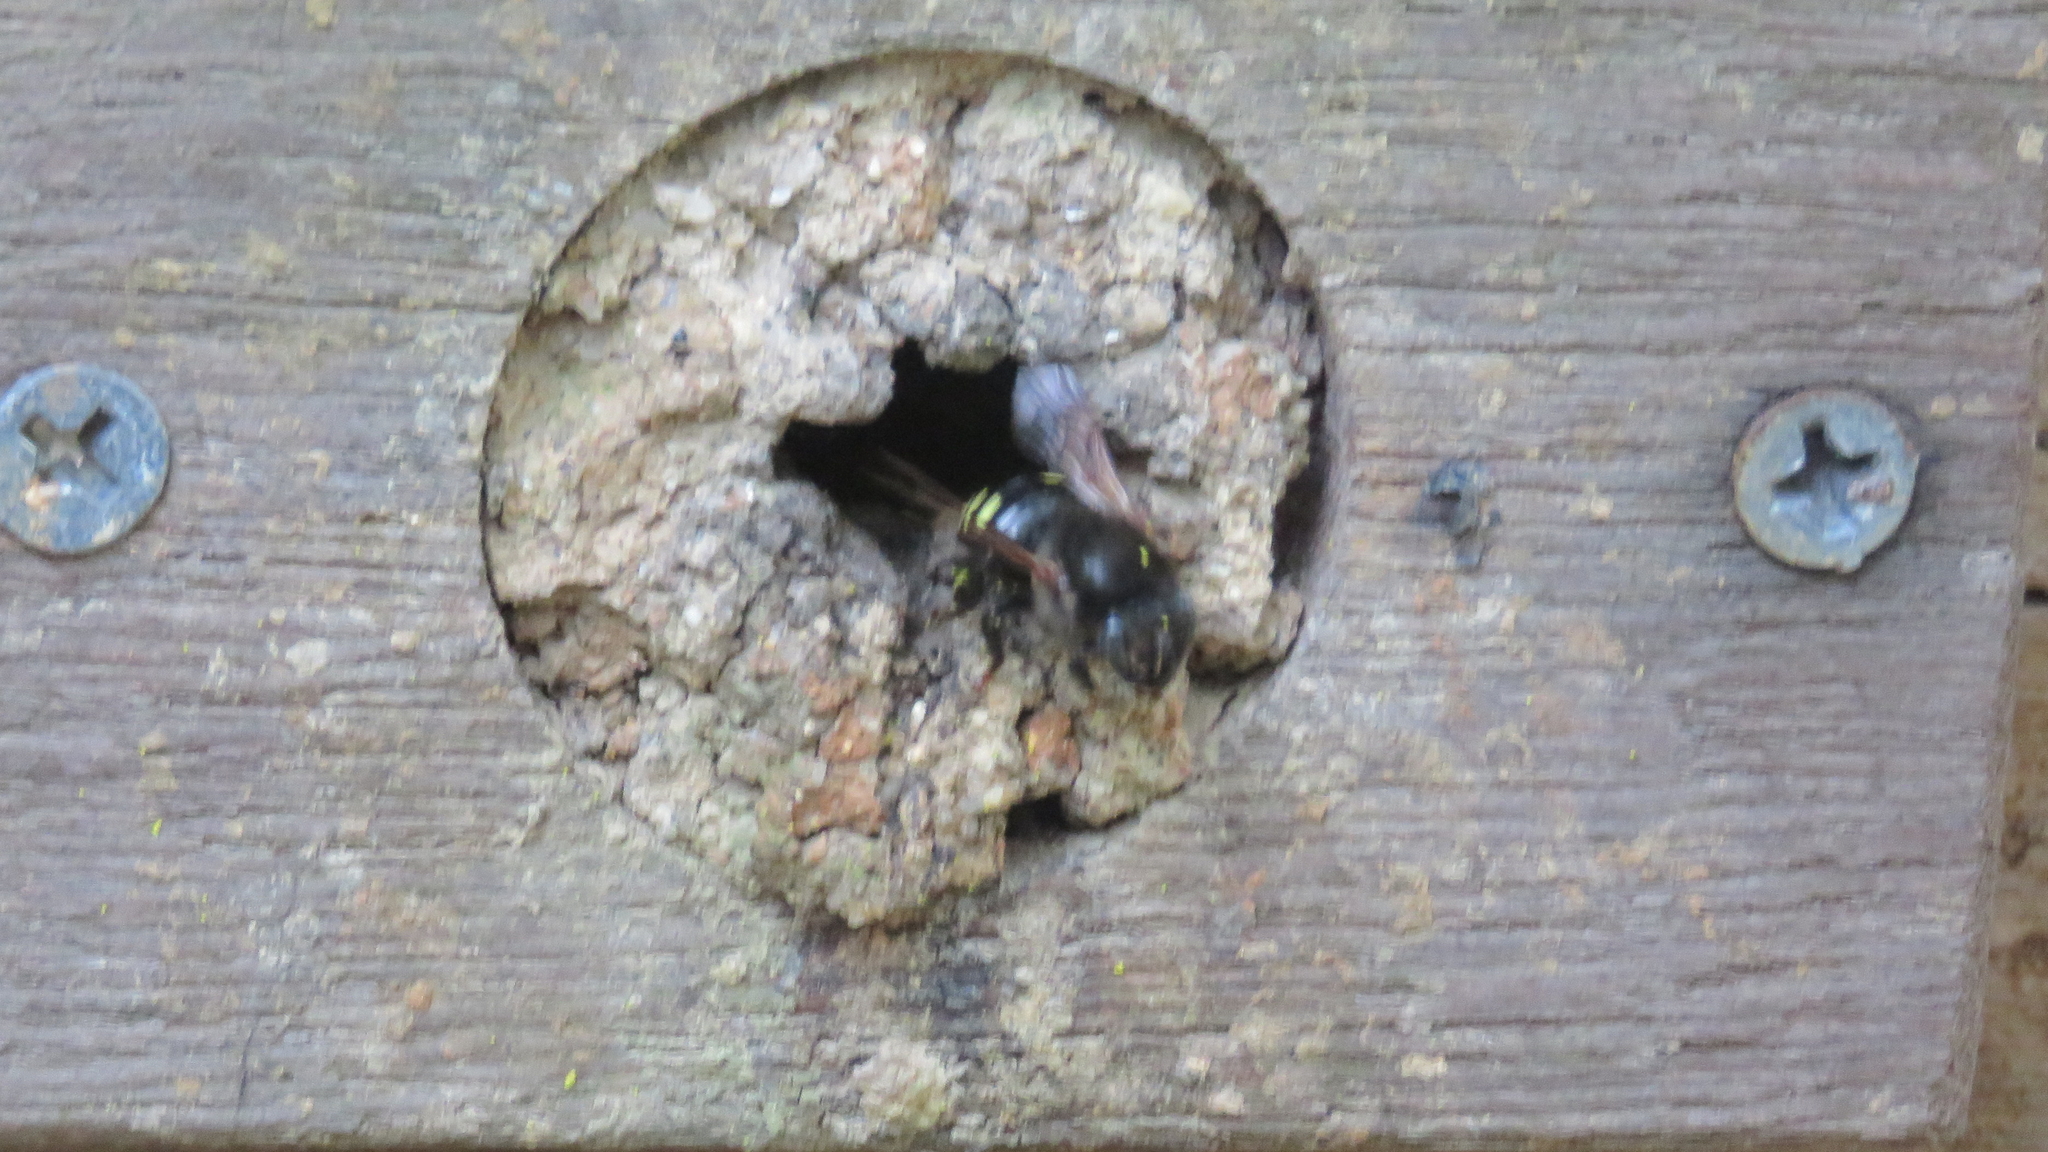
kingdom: Animalia
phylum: Arthropoda
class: Insecta
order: Hymenoptera
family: Apidae
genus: Melipona
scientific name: Melipona quadrifasciata
